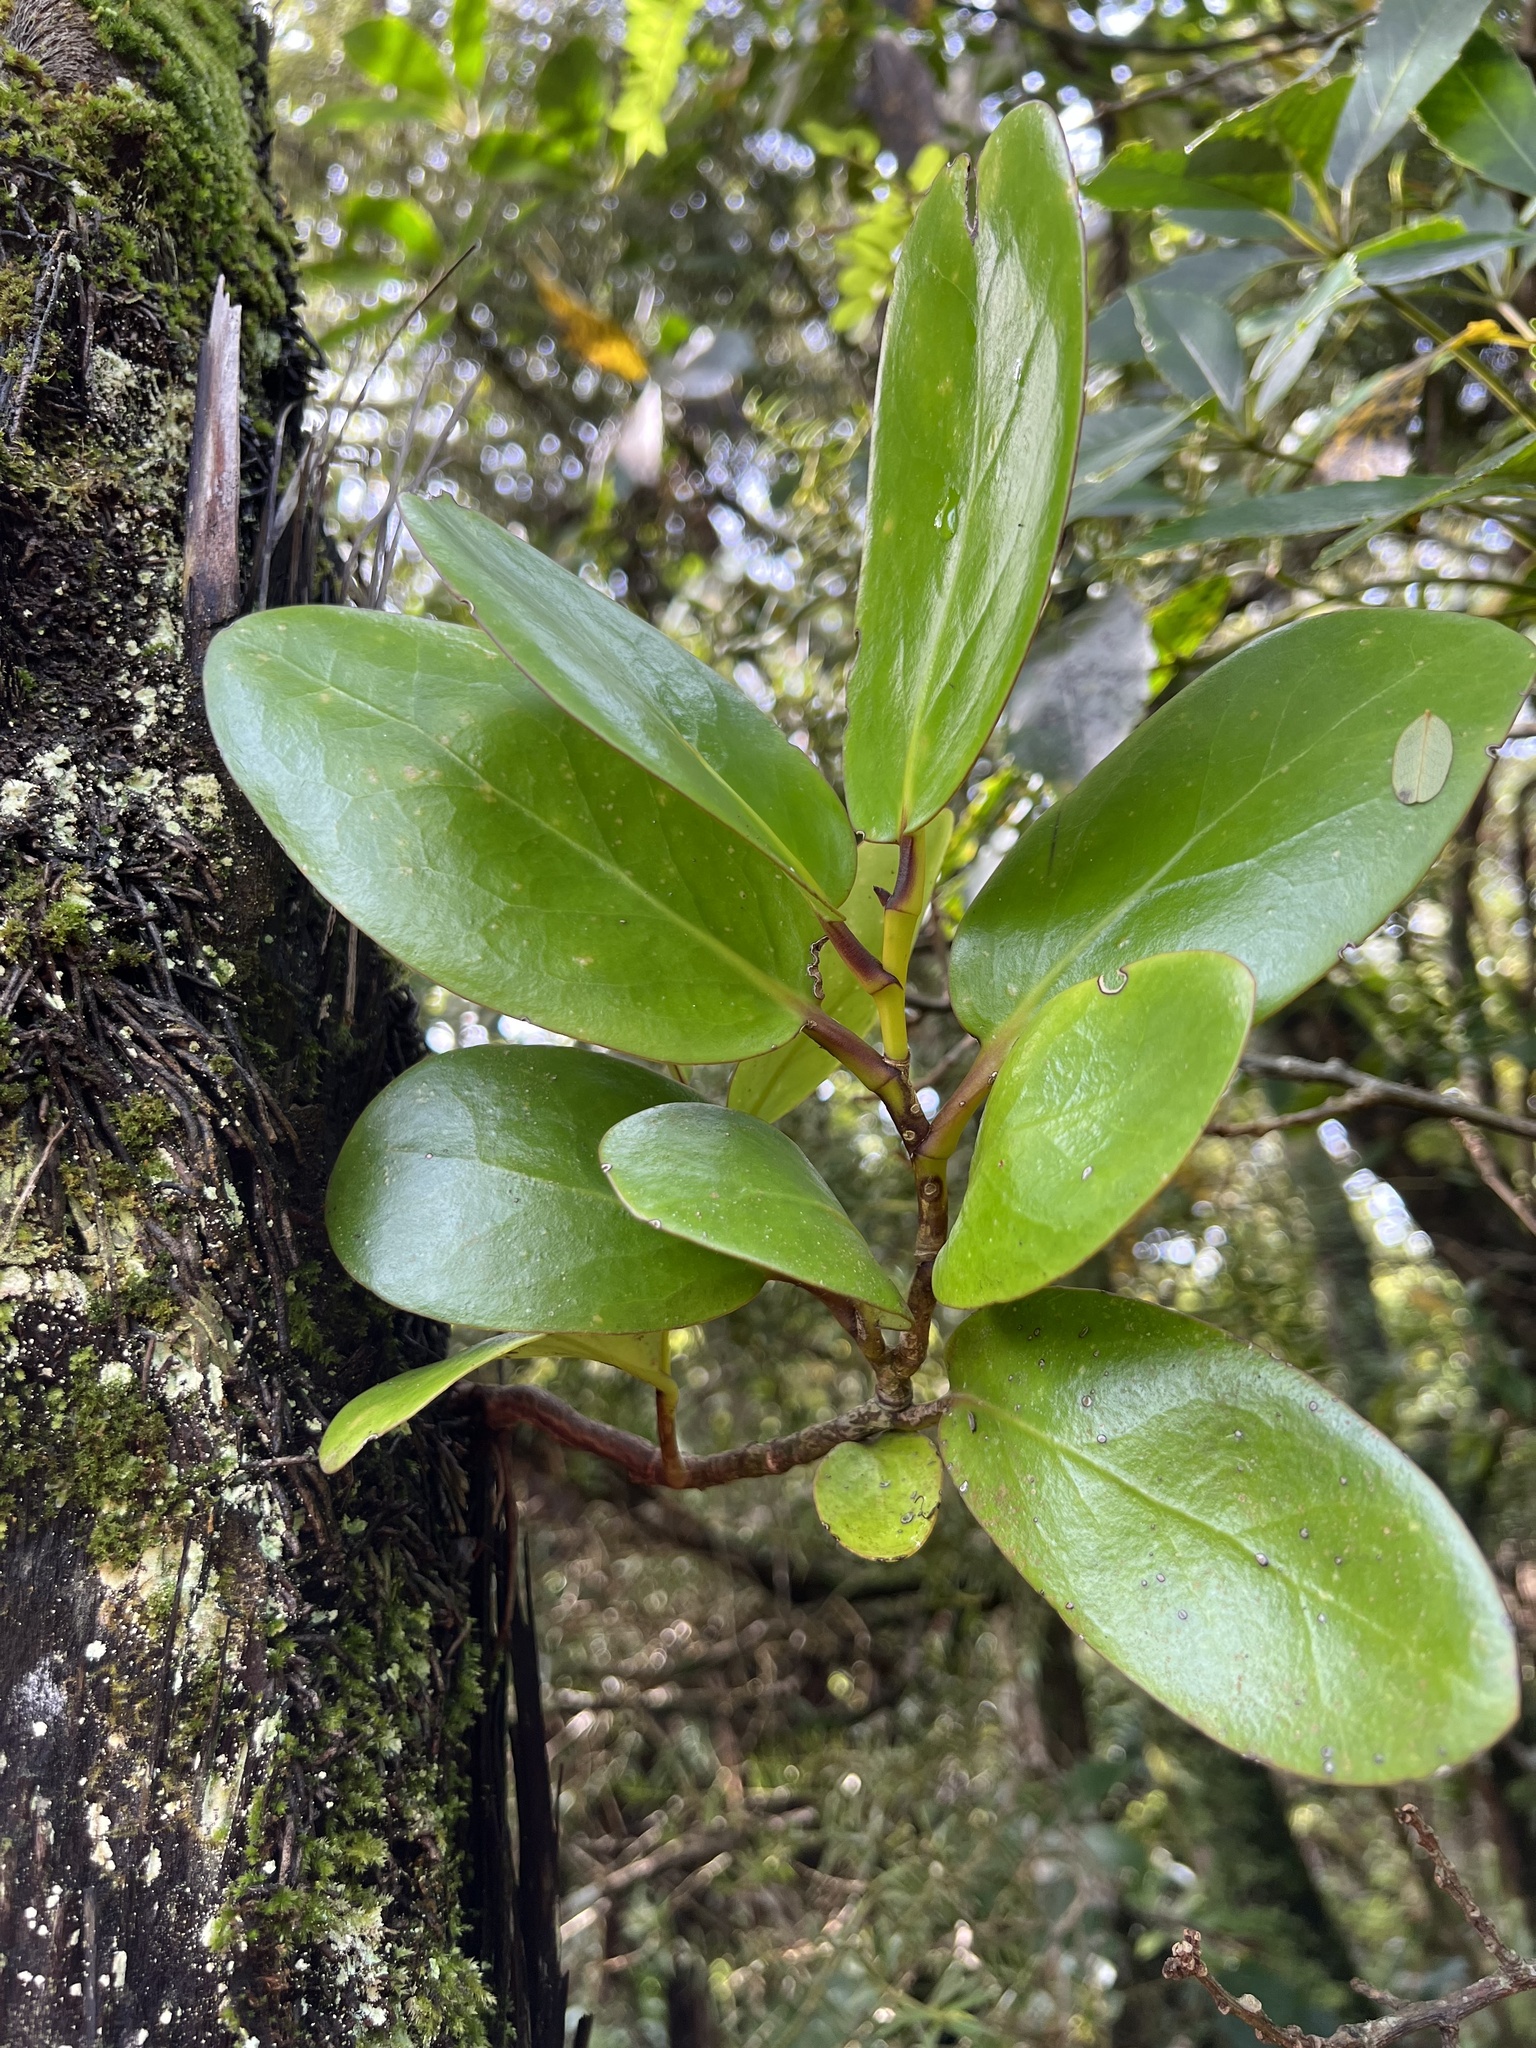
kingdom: Plantae
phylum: Tracheophyta
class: Magnoliopsida
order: Apiales
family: Griseliniaceae
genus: Griselinia
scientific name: Griselinia lucida
